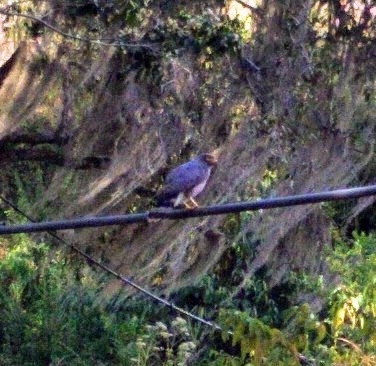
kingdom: Animalia
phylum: Chordata
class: Aves
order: Accipitriformes
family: Accipitridae
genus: Rupornis
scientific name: Rupornis magnirostris
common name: Roadside hawk
